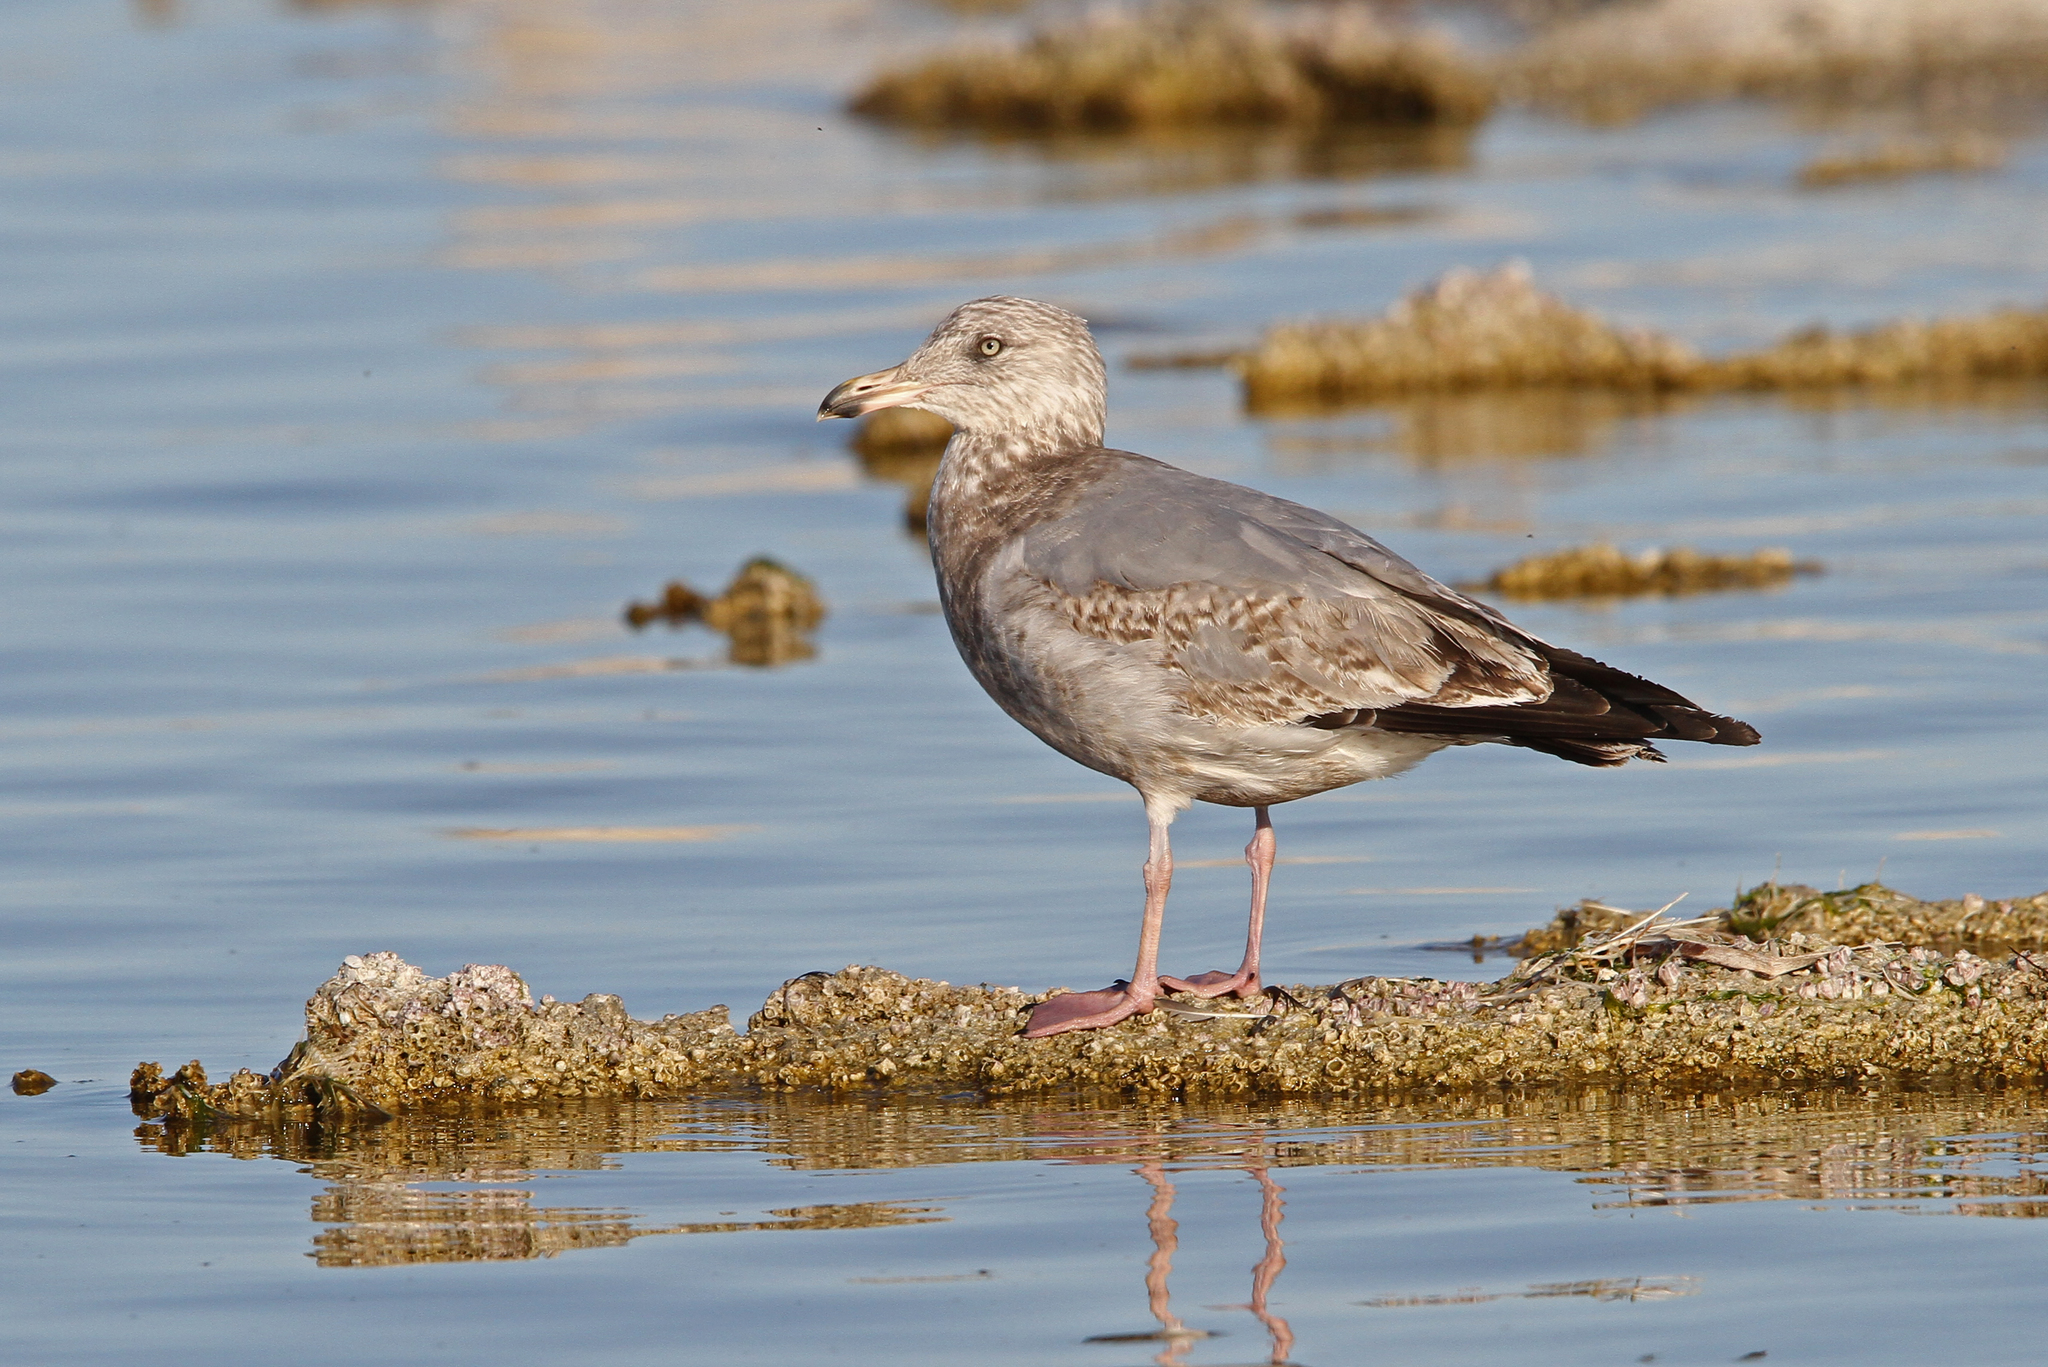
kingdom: Animalia
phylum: Chordata
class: Aves
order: Charadriiformes
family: Laridae
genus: Larus
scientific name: Larus argentatus
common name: Herring gull
